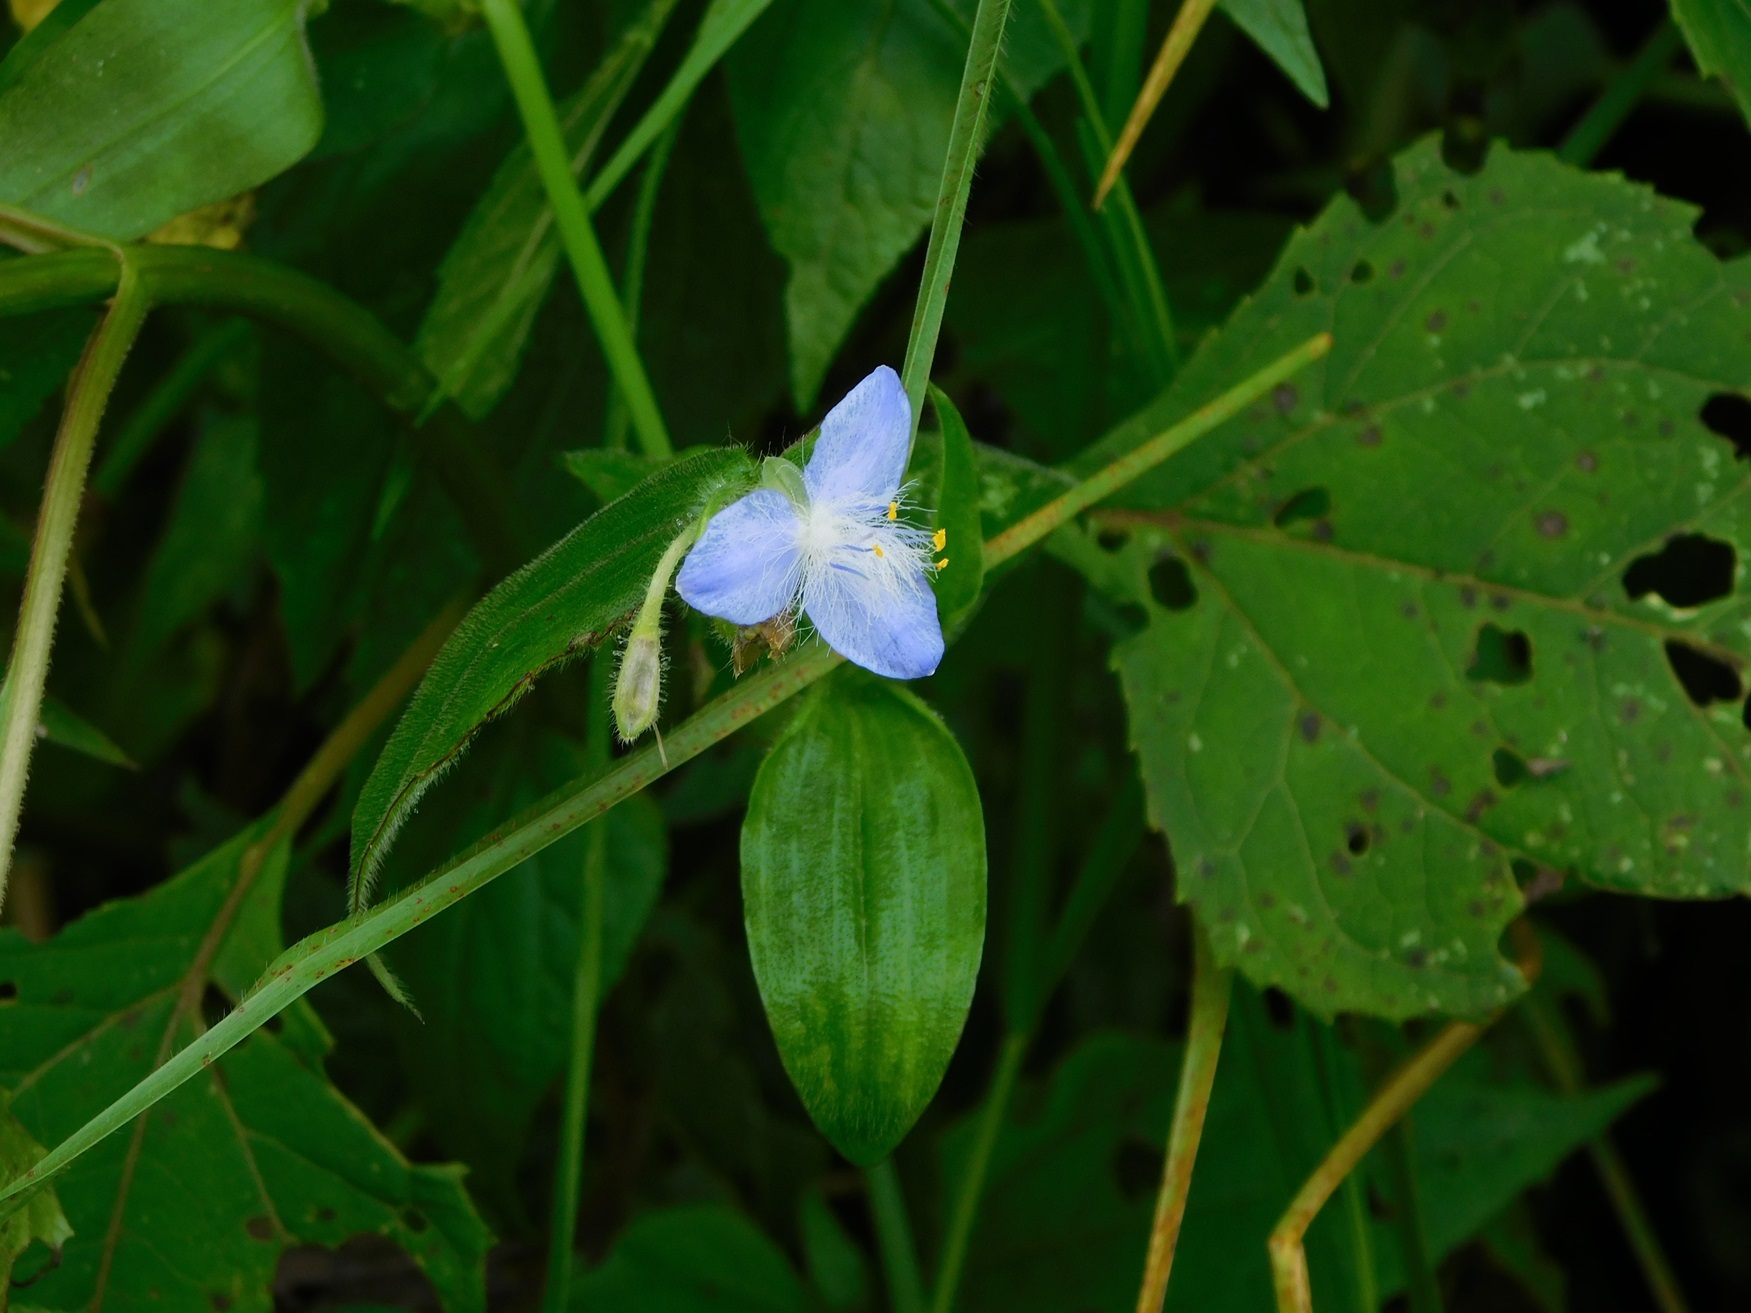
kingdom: Plantae
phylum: Tracheophyta
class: Liliopsida
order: Commelinales
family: Commelinaceae
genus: Elasis
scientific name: Elasis guatemalensis
